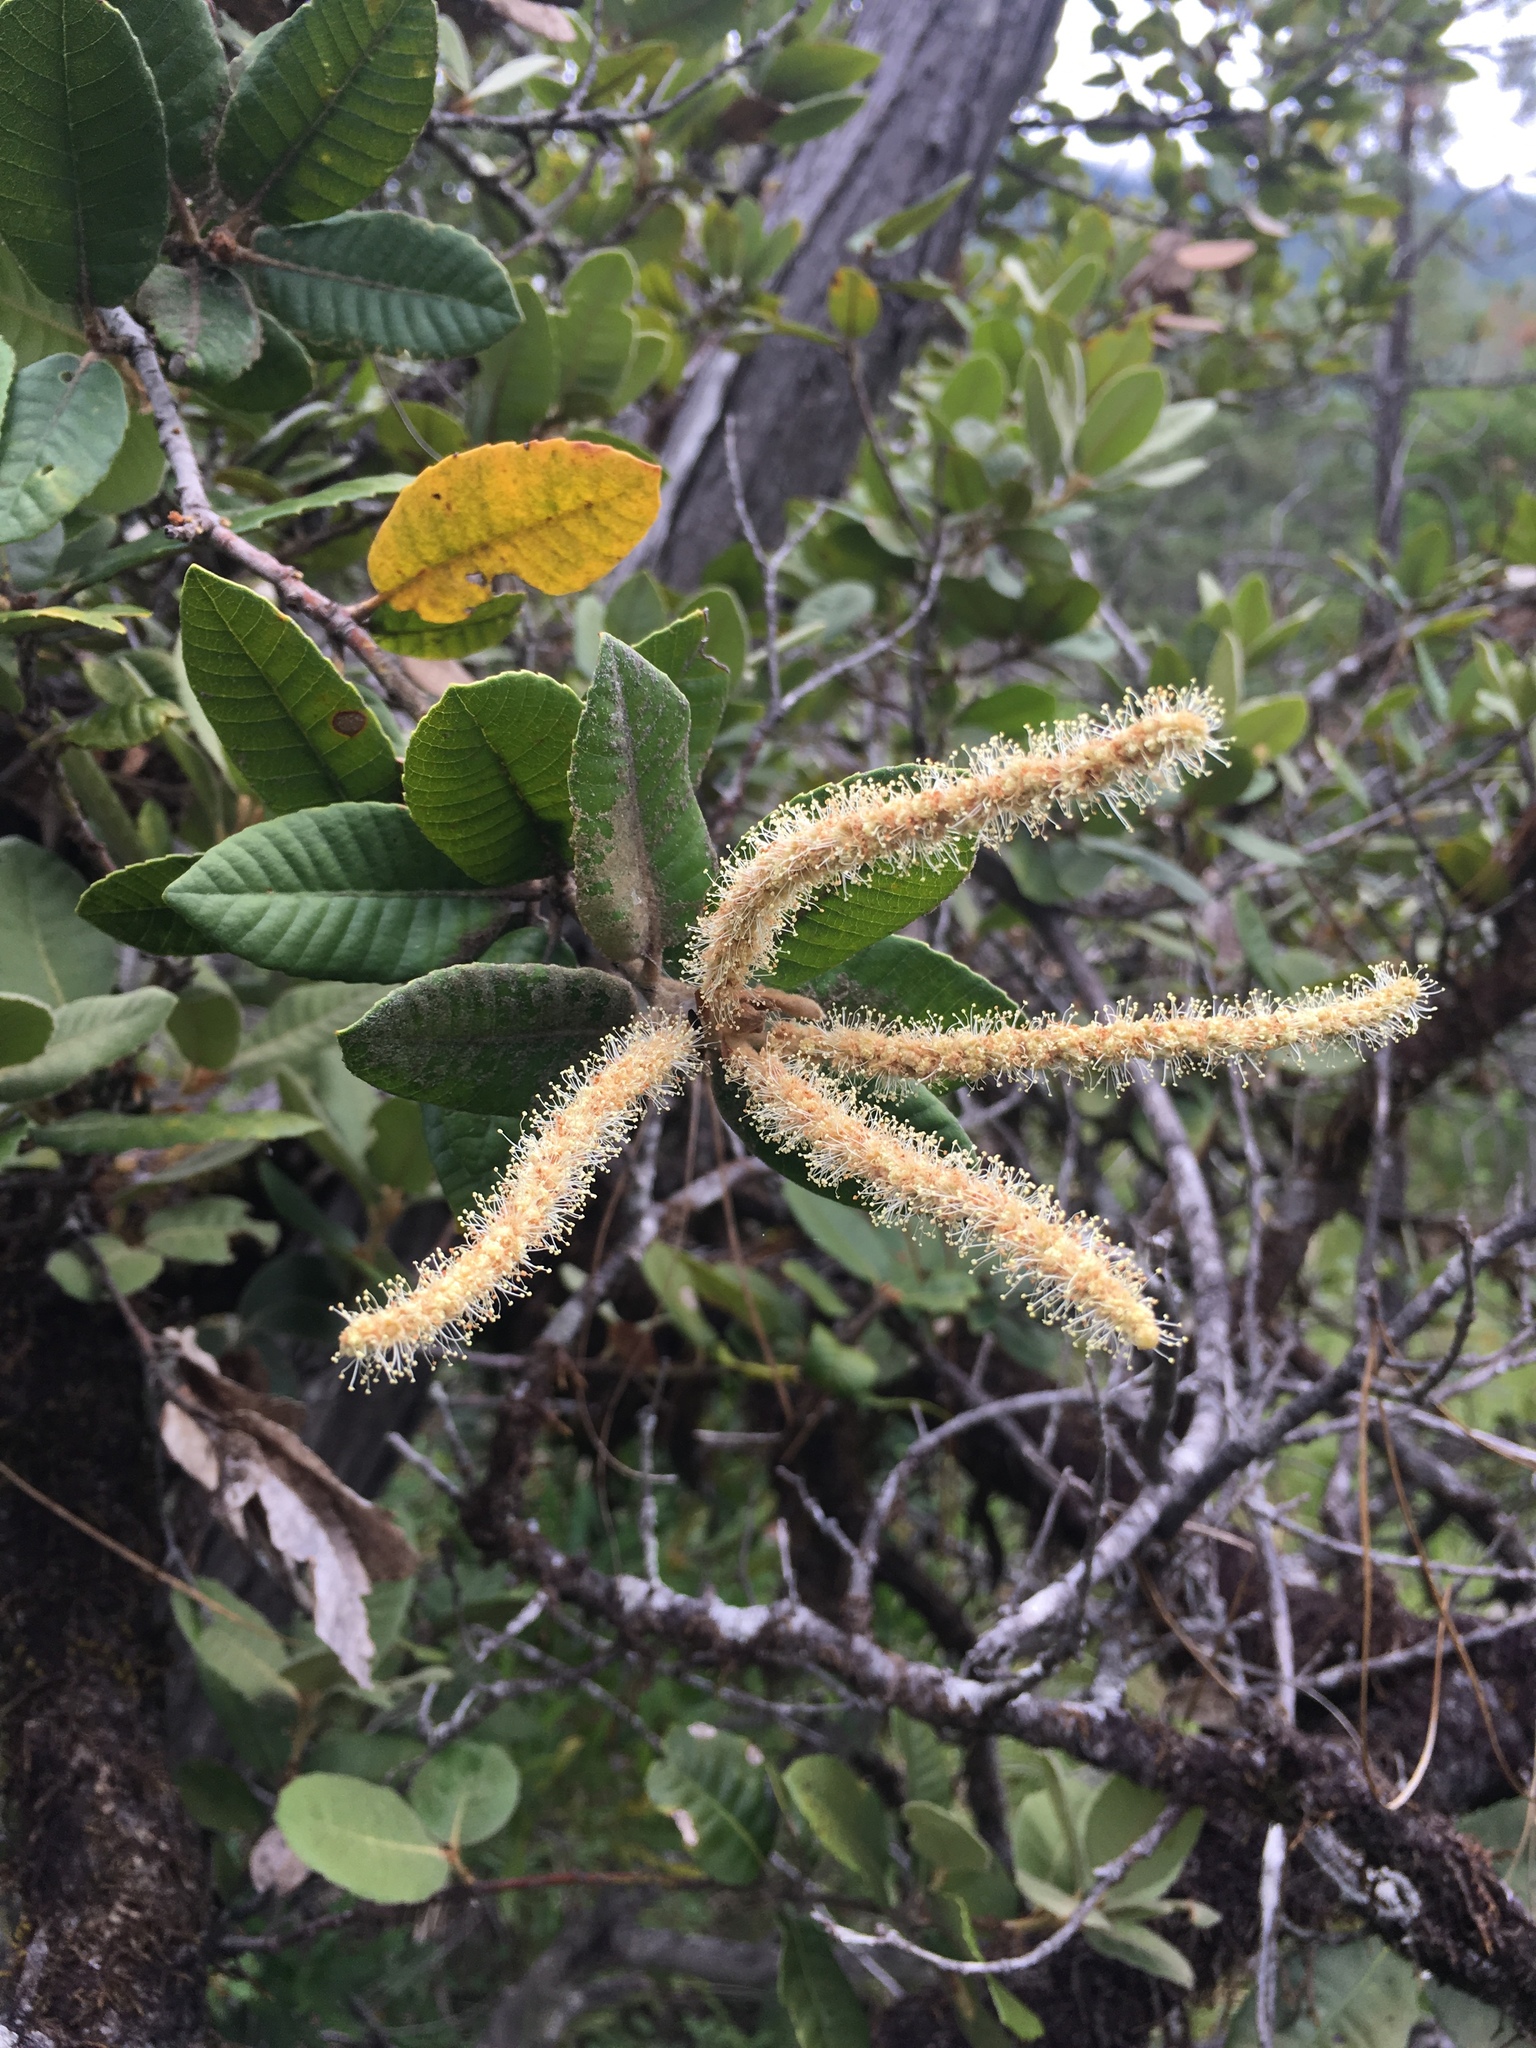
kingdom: Plantae
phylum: Tracheophyta
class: Magnoliopsida
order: Fagales
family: Fagaceae
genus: Notholithocarpus
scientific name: Notholithocarpus densiflorus
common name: Tan bark oak
